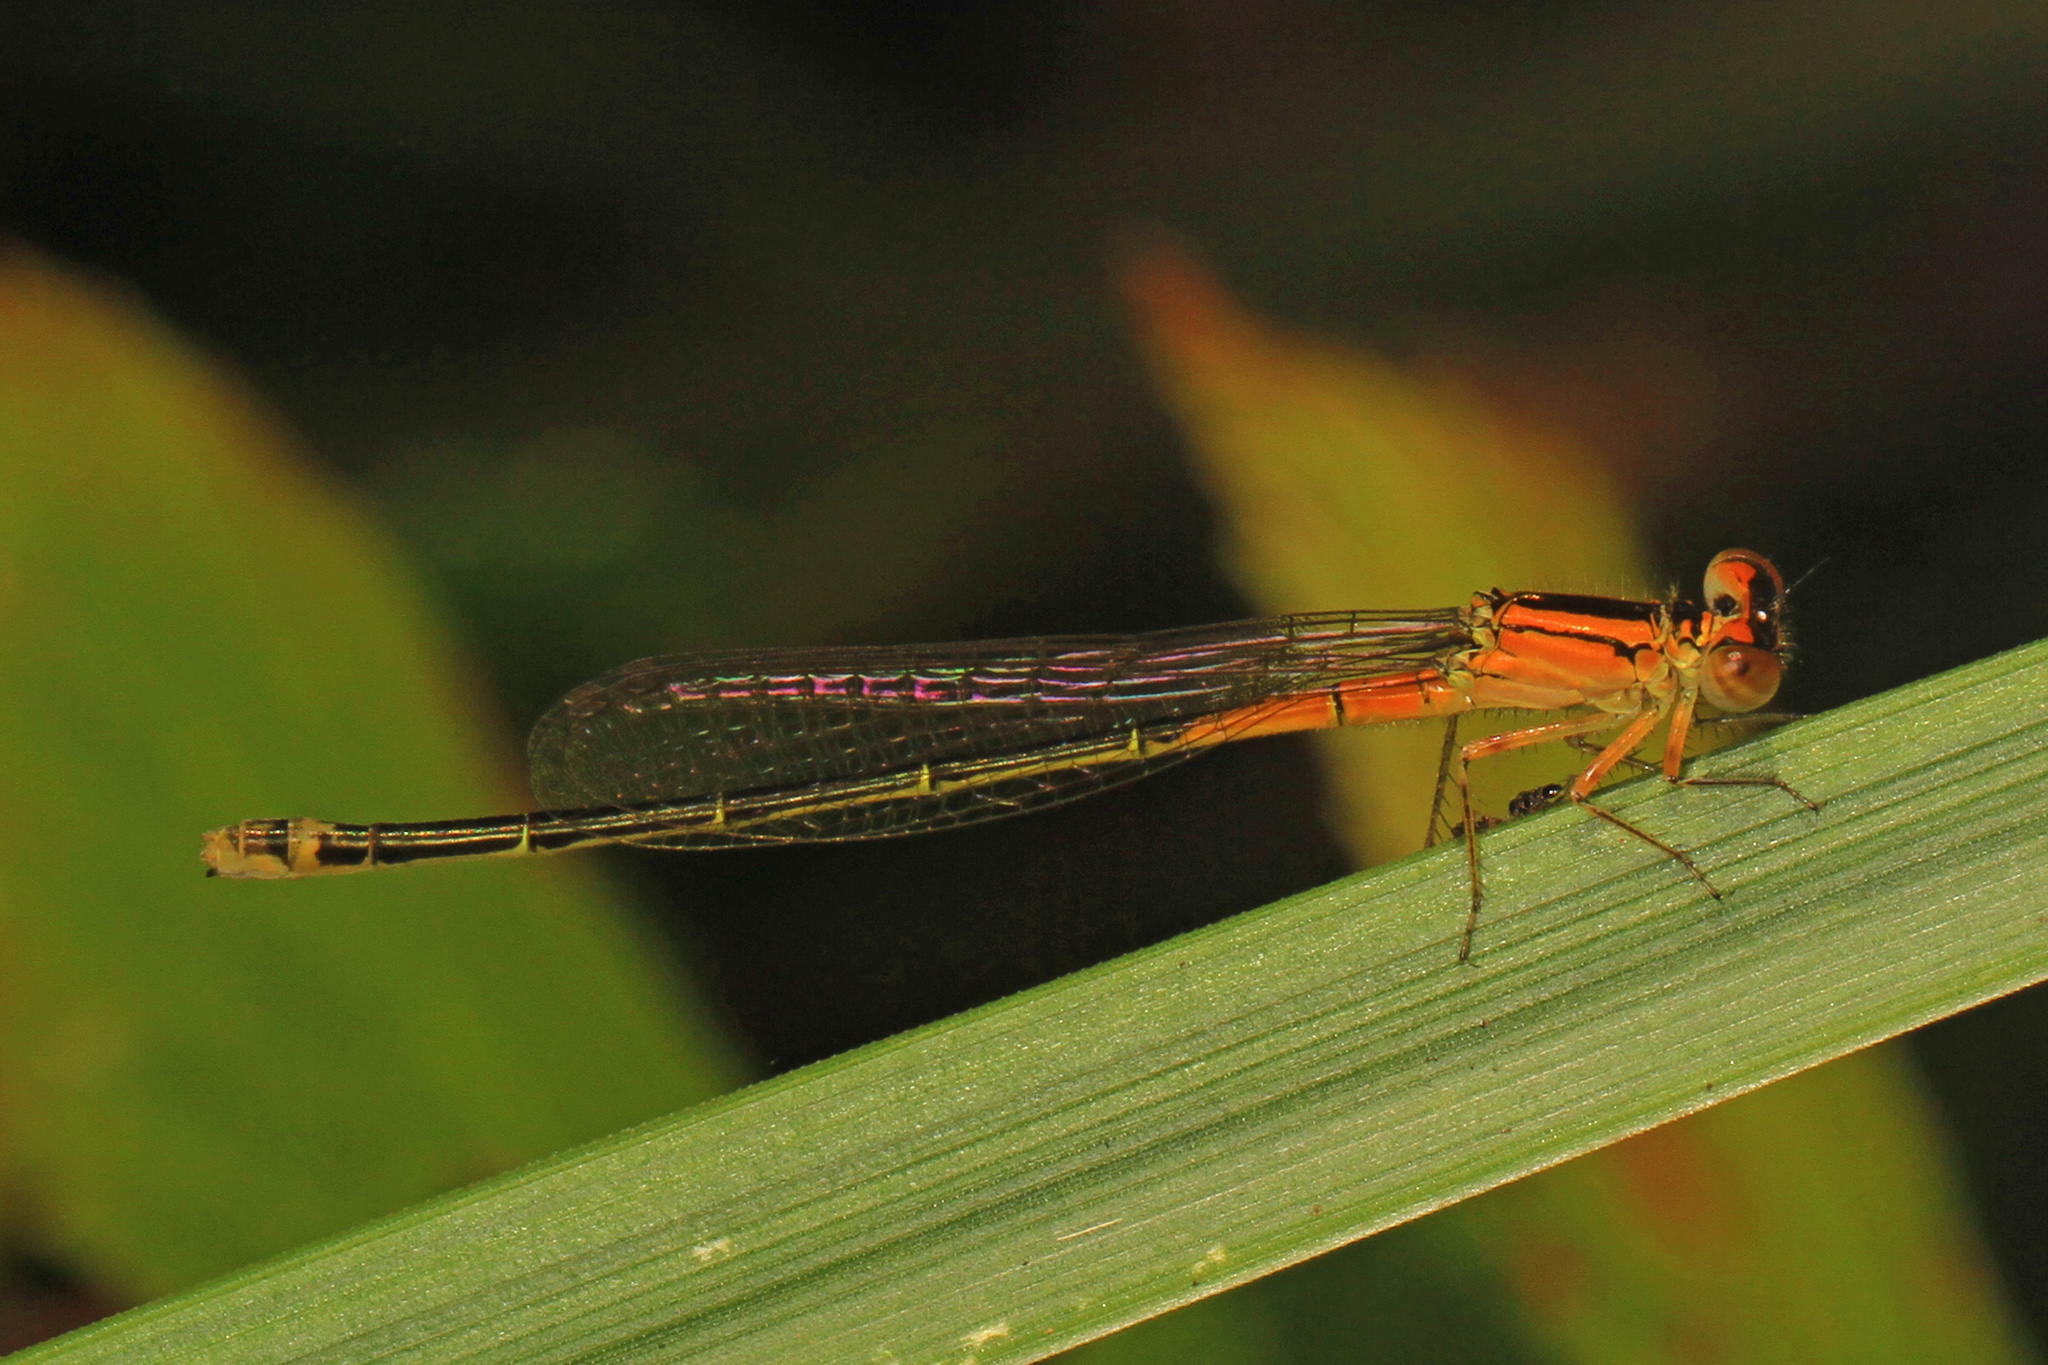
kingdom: Animalia
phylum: Arthropoda
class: Insecta
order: Odonata
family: Coenagrionidae
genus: Ischnura
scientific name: Ischnura verticalis
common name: Eastern forktail
